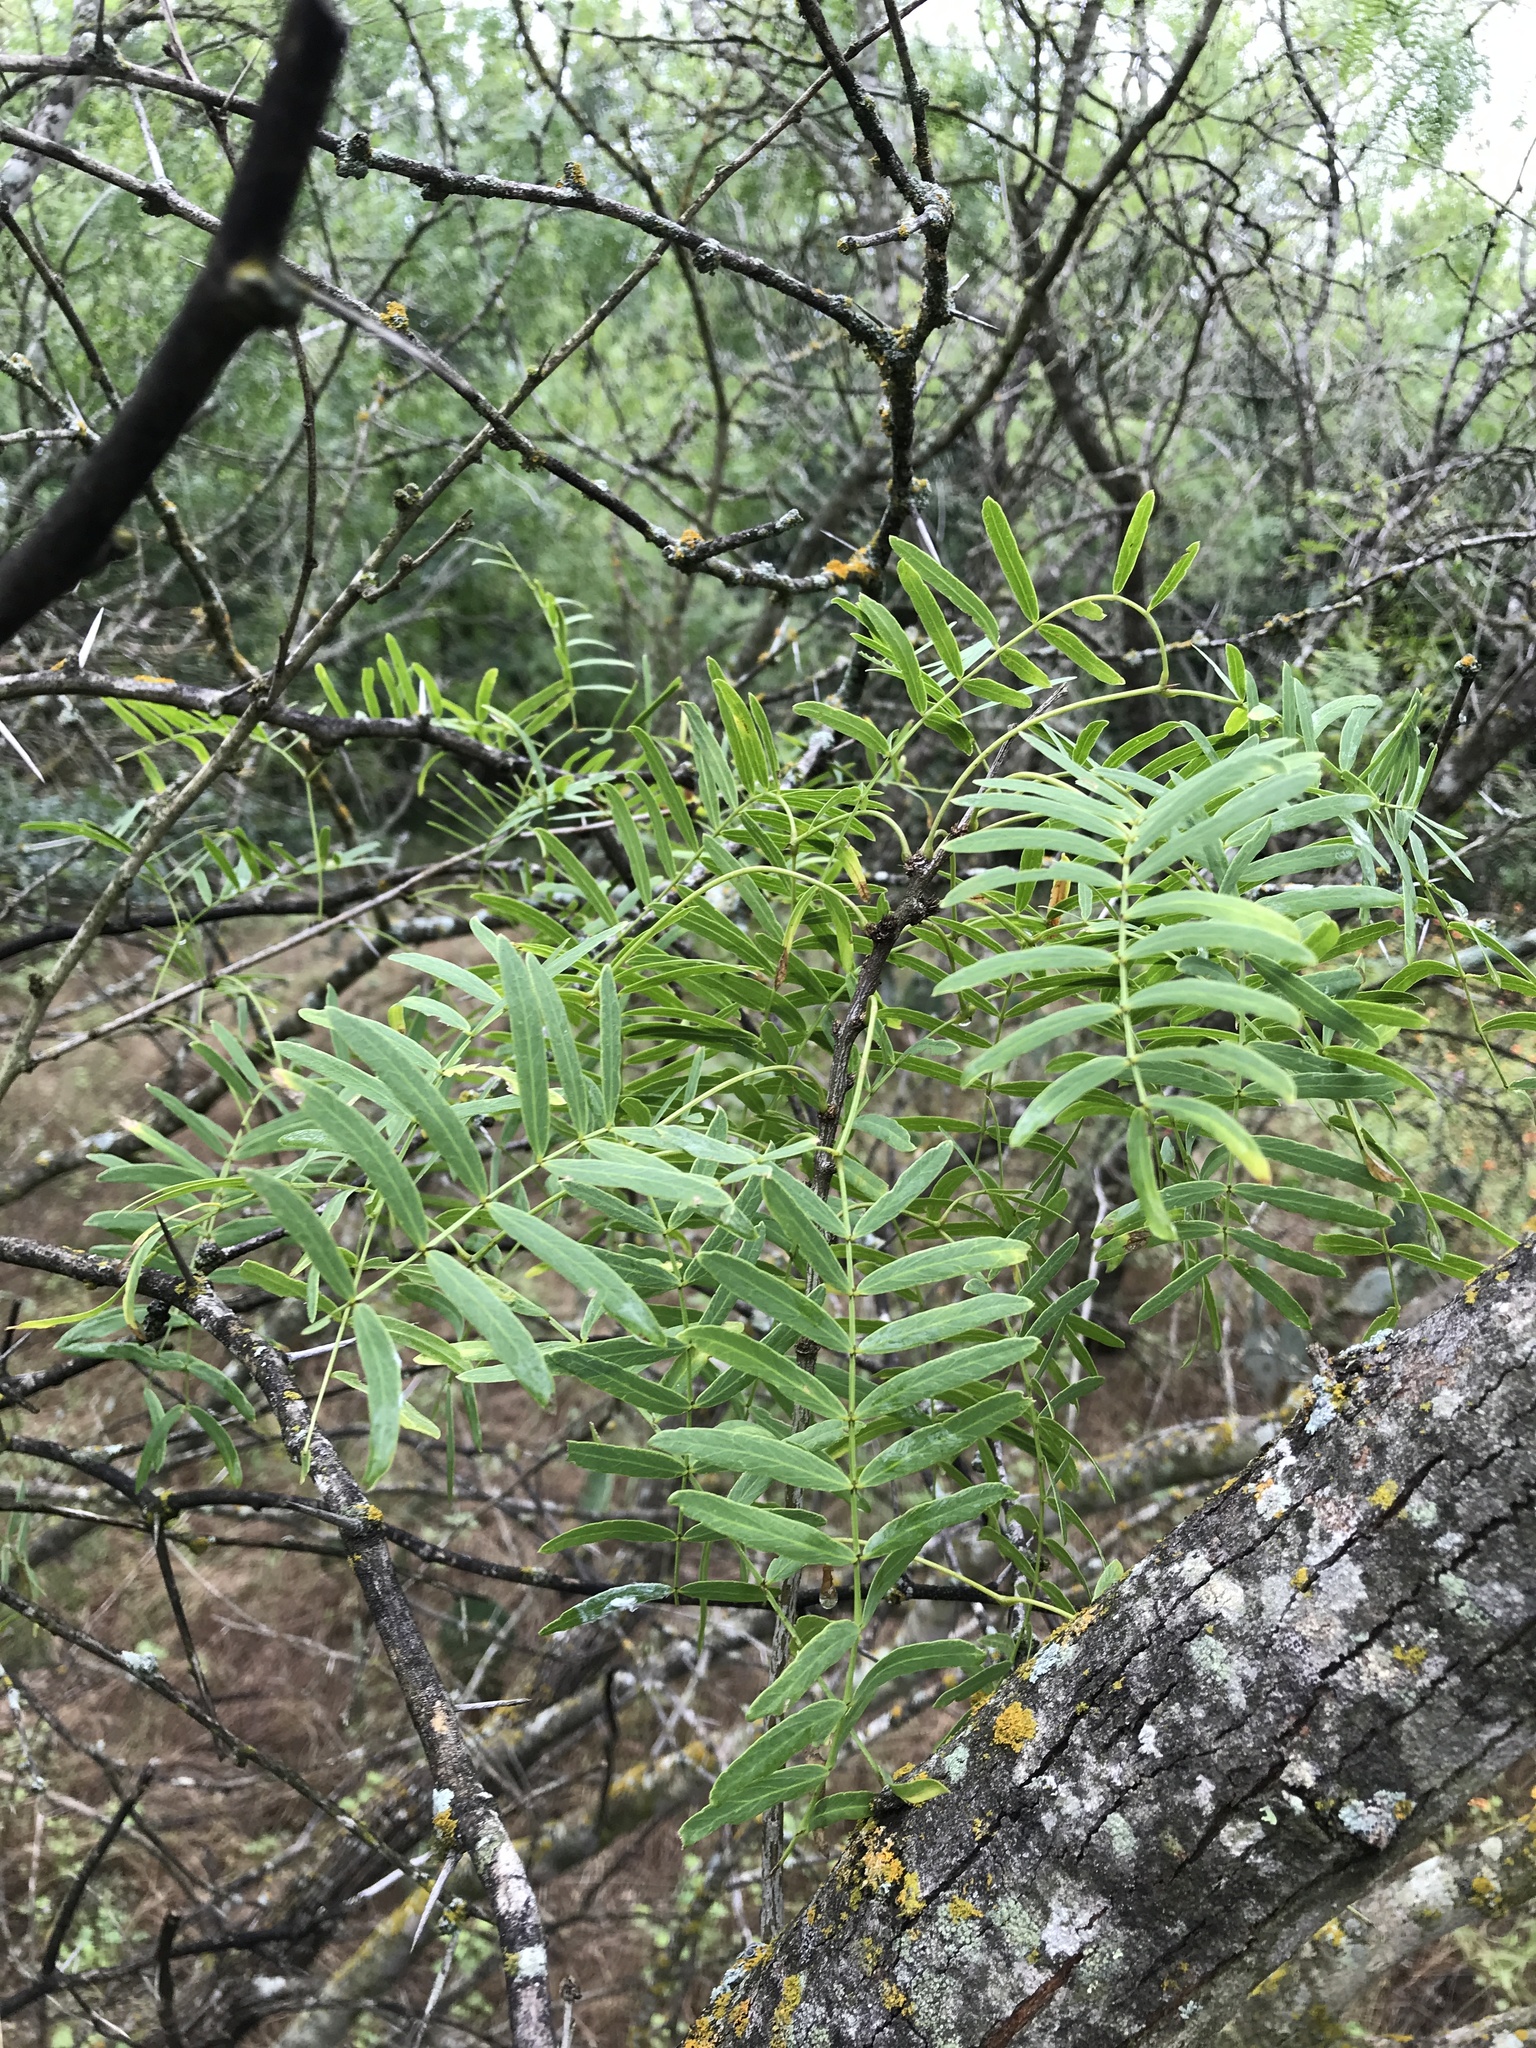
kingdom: Plantae
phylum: Tracheophyta
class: Magnoliopsida
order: Fabales
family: Fabaceae
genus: Prosopis
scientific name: Prosopis glandulosa
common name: Honey mesquite
